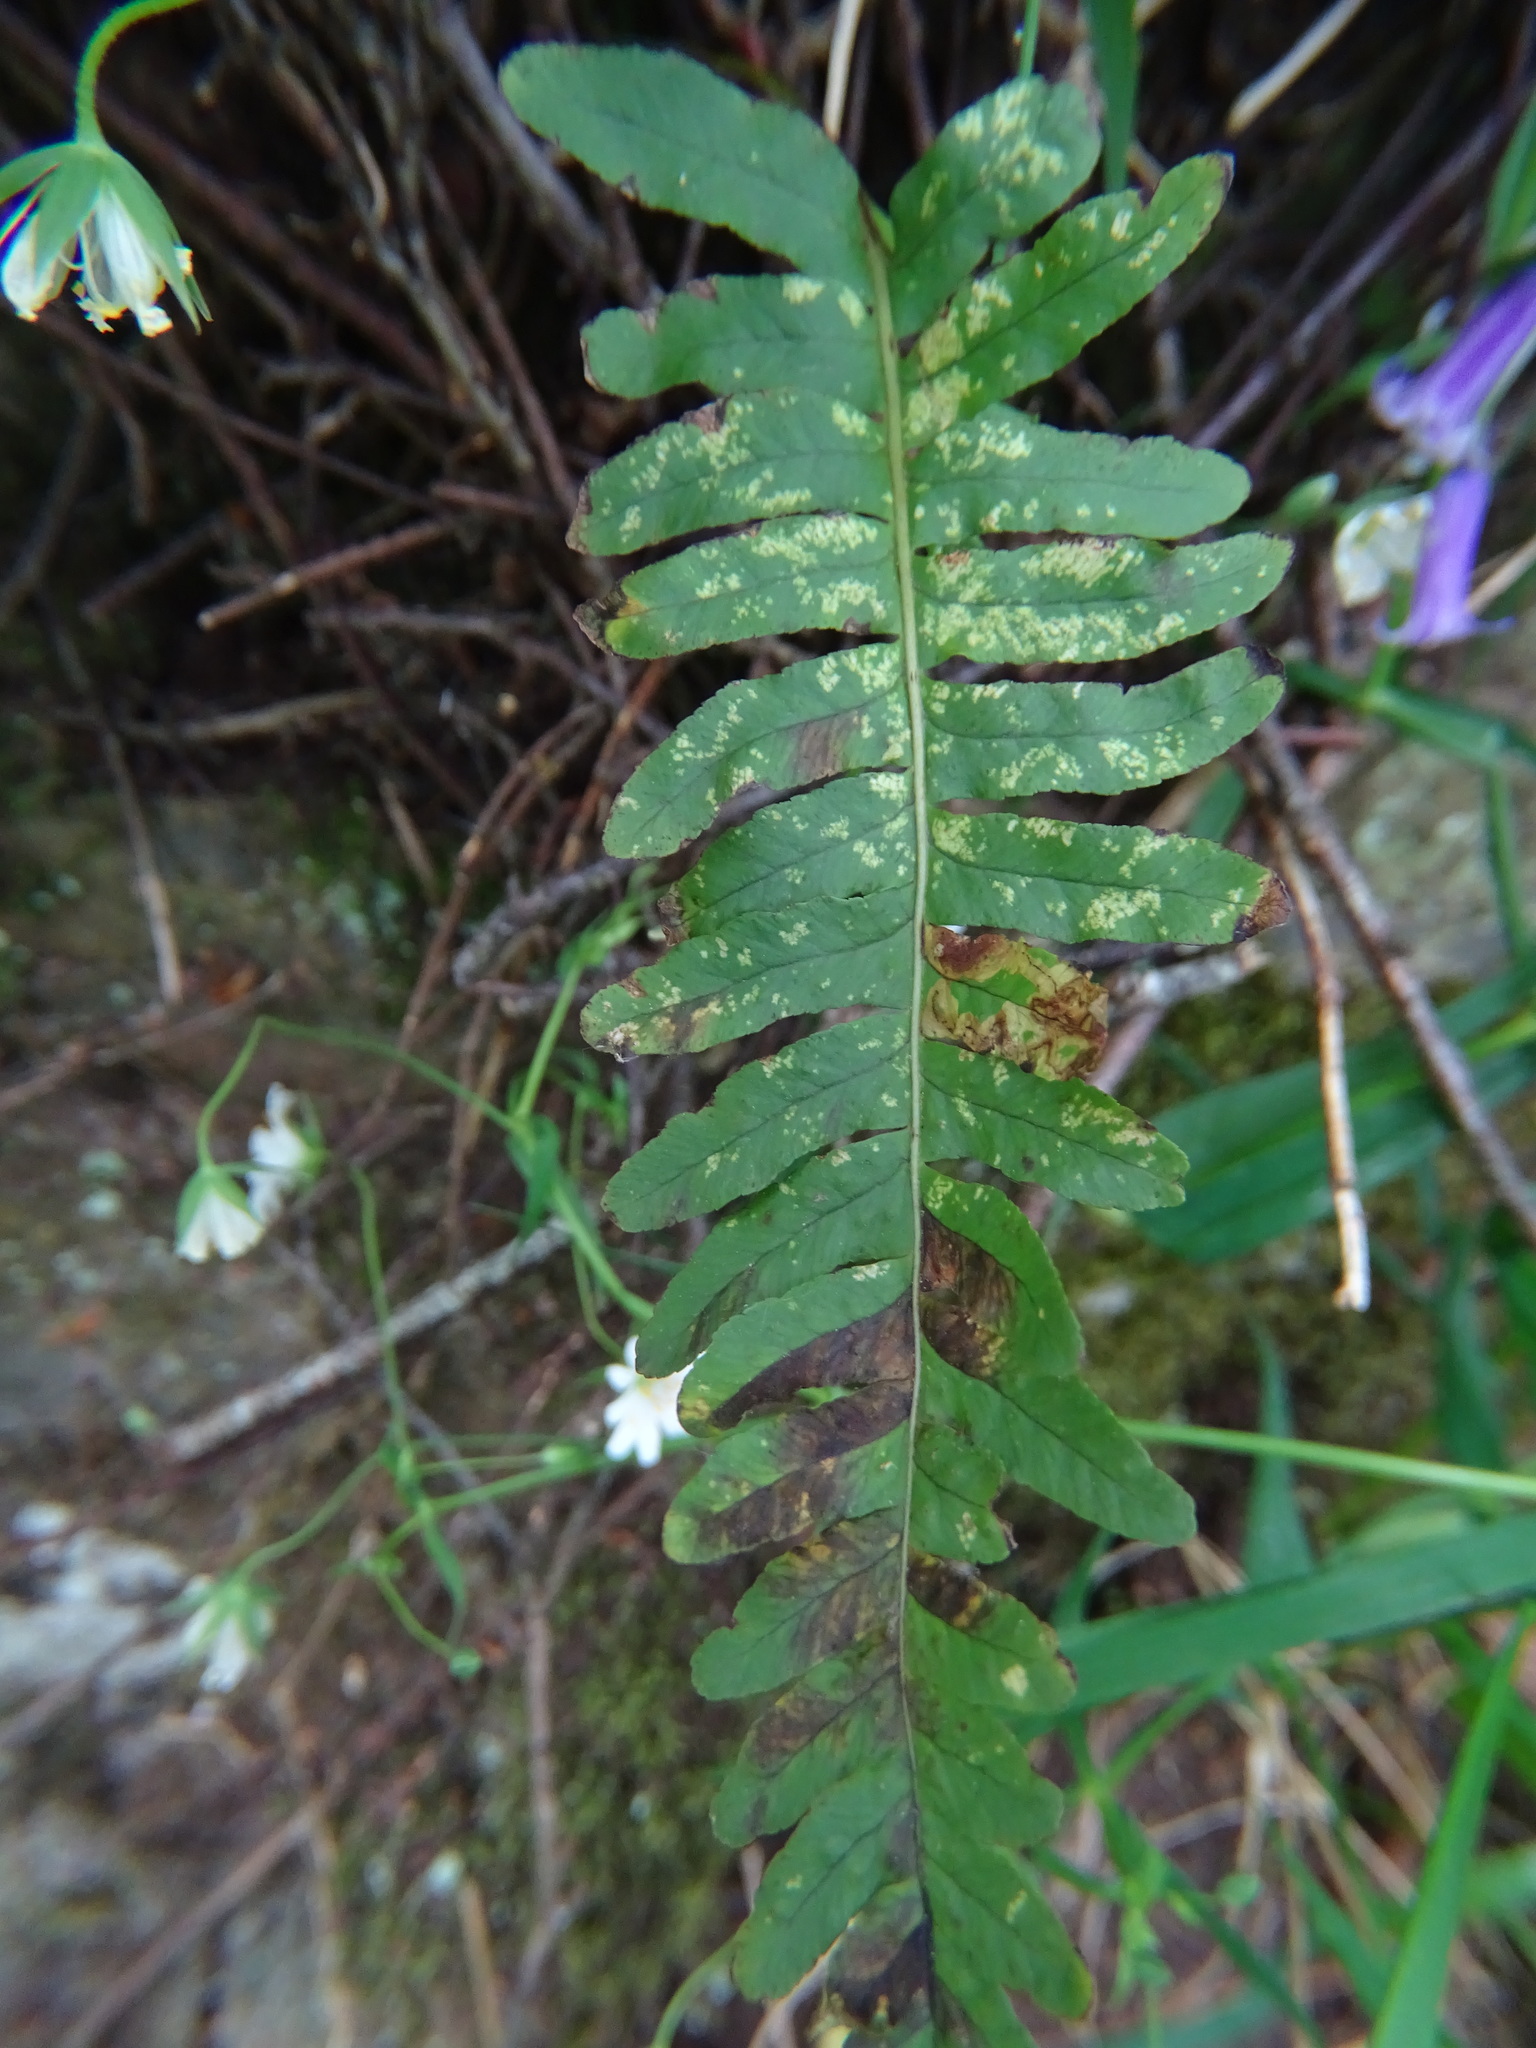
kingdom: Plantae
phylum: Tracheophyta
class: Polypodiopsida
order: Polypodiales
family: Polypodiaceae
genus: Polypodium
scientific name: Polypodium vulgare
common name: Common polypody
